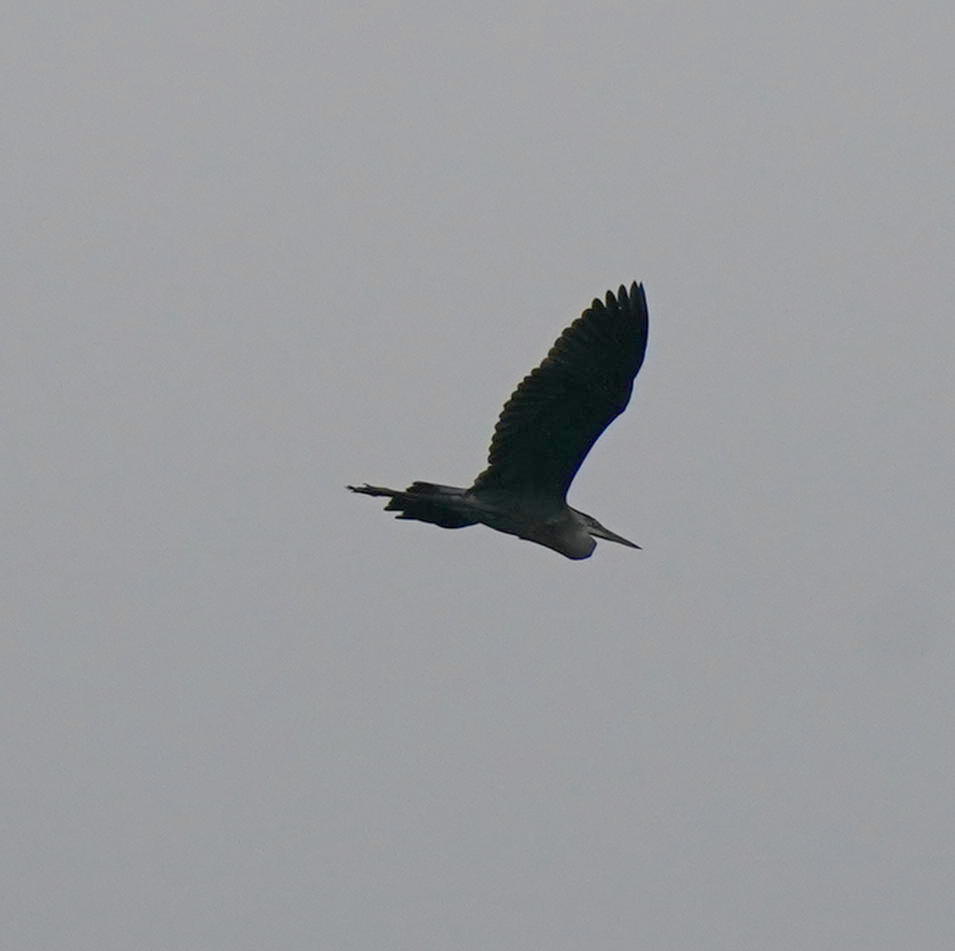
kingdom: Animalia
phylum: Chordata
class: Aves
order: Pelecaniformes
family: Ardeidae
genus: Ardea
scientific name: Ardea herodias
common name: Great blue heron
